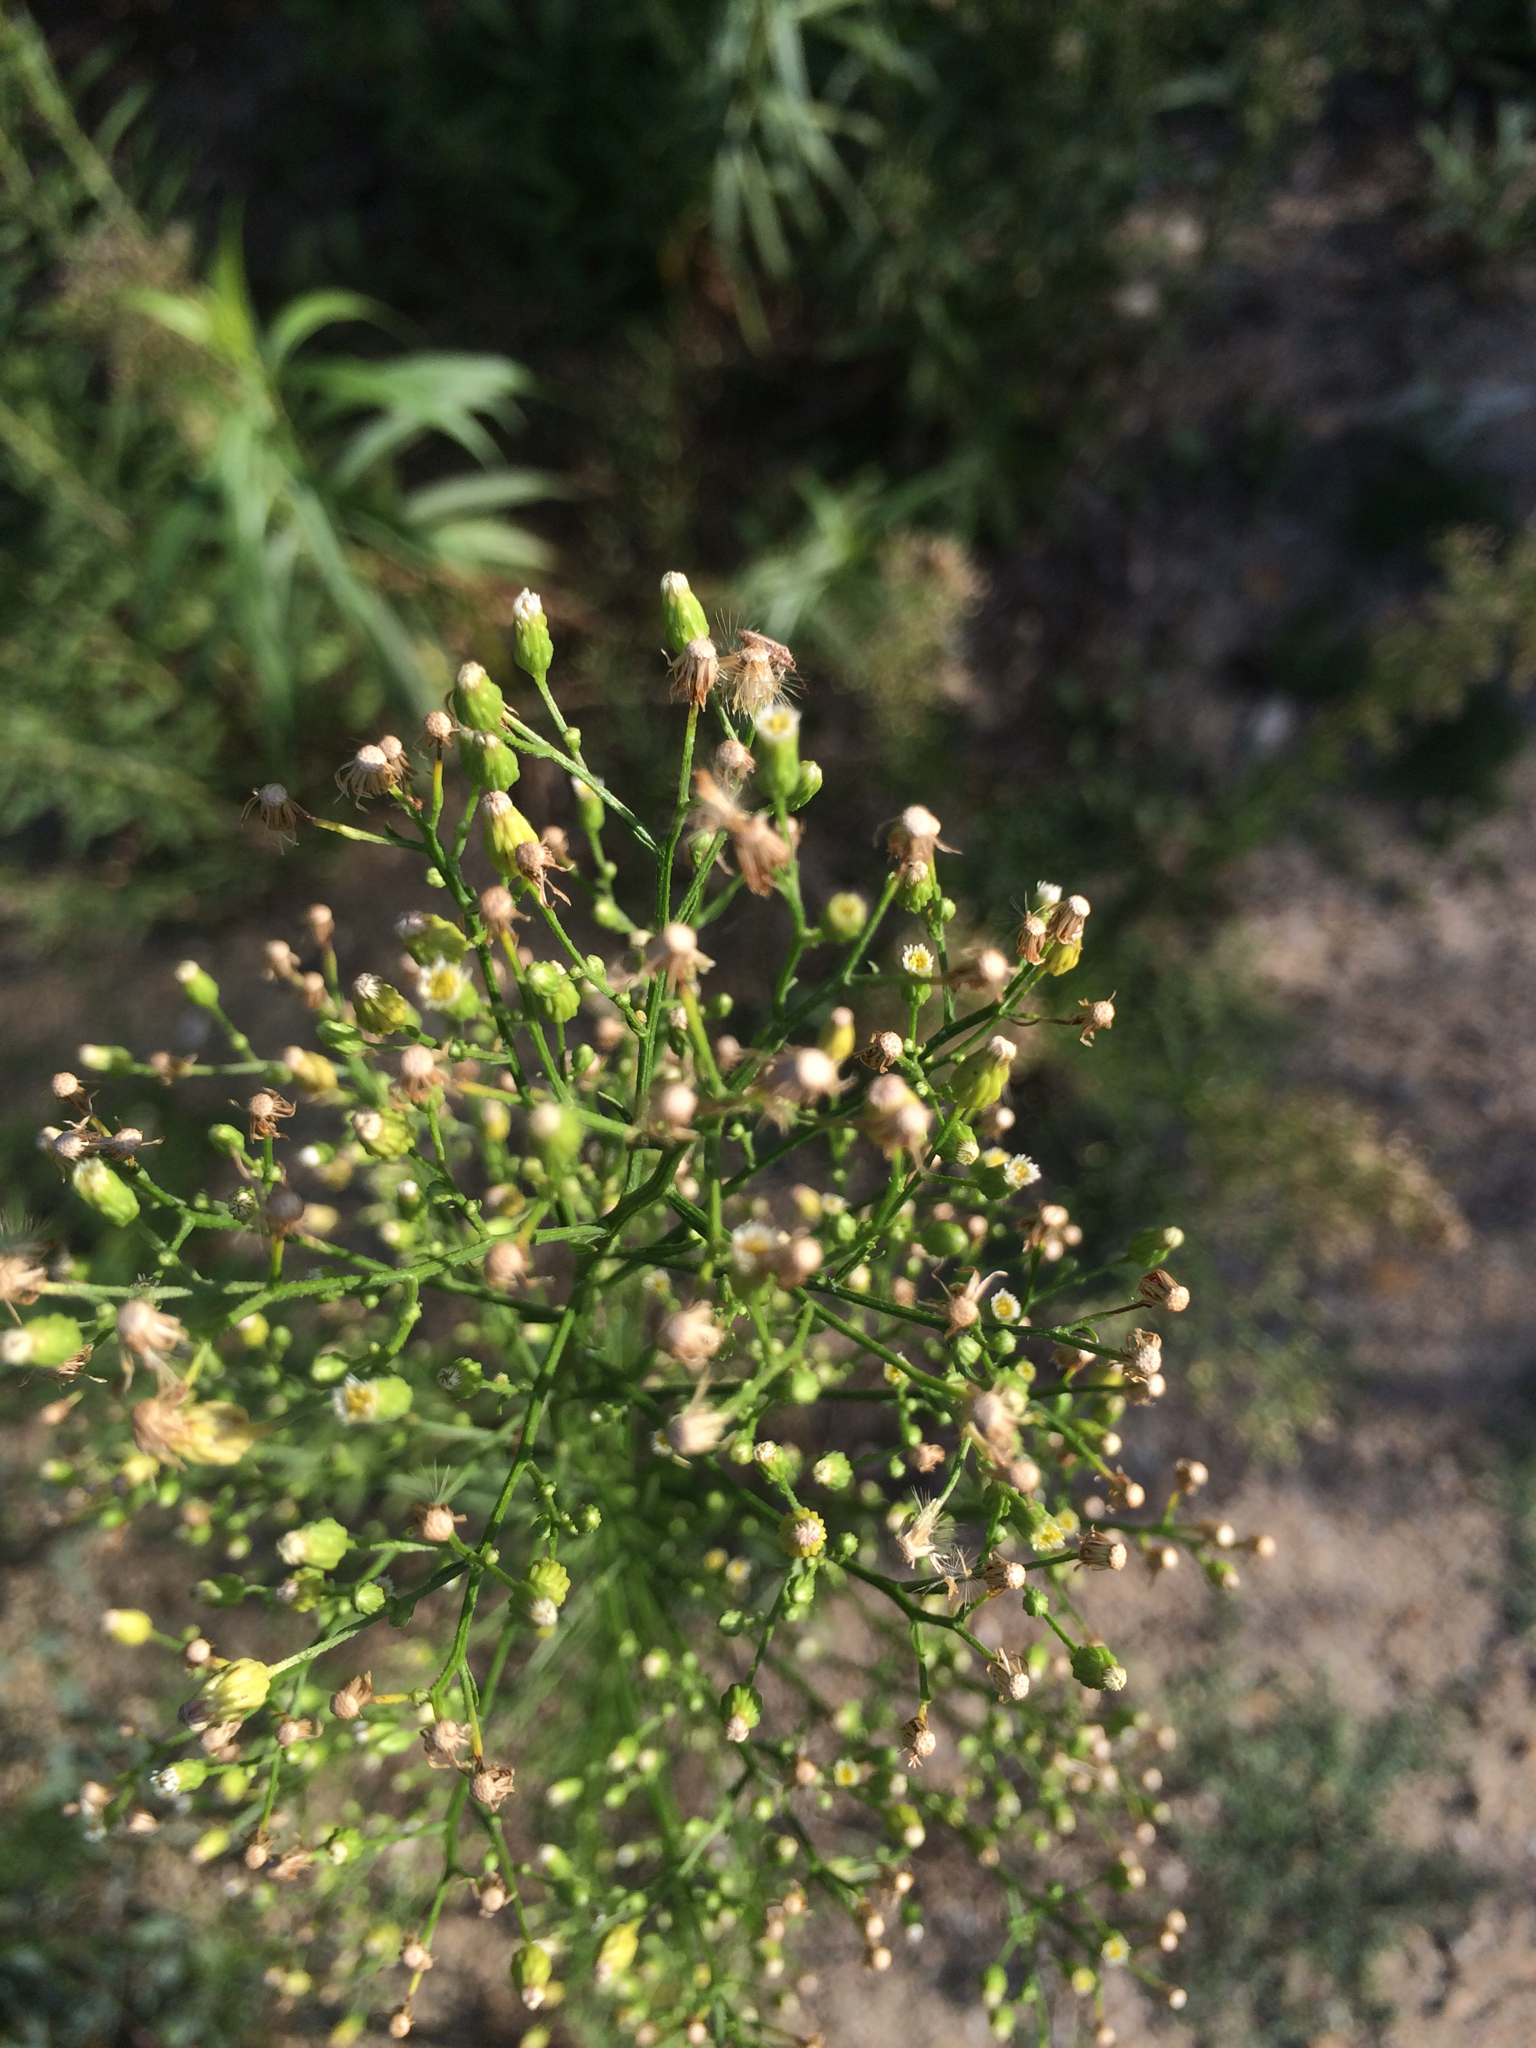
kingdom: Plantae
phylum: Tracheophyta
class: Magnoliopsida
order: Asterales
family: Asteraceae
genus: Erigeron
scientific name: Erigeron canadensis
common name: Canadian fleabane
